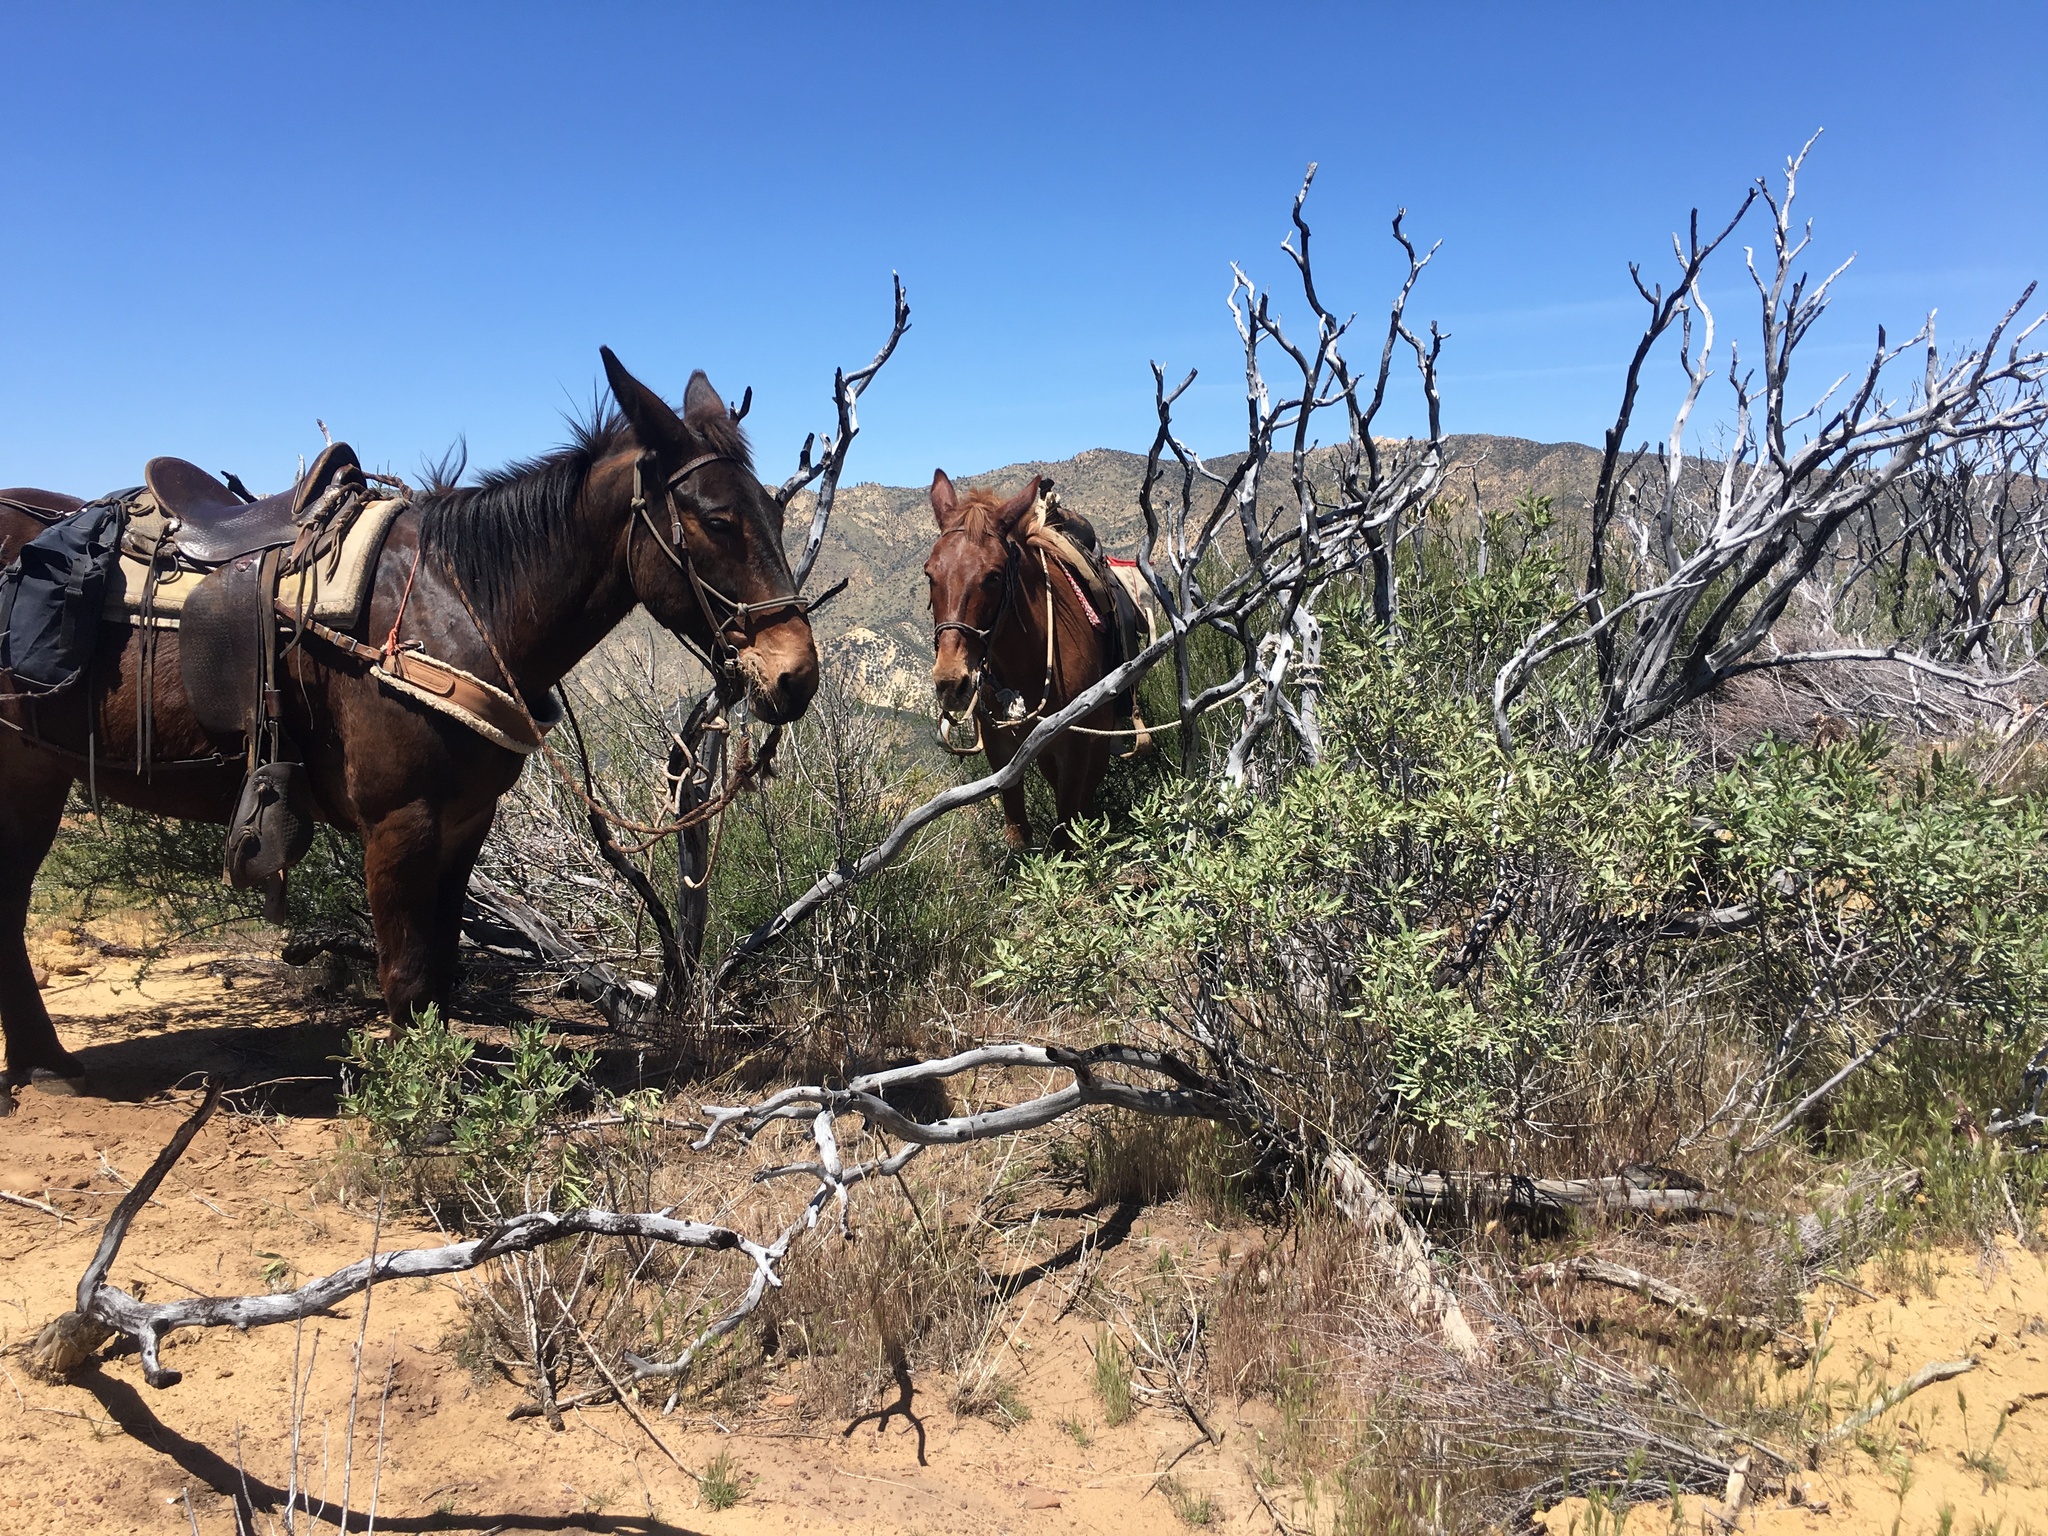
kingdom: Plantae
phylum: Tracheophyta
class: Magnoliopsida
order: Boraginales
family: Namaceae
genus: Eriodictyon
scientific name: Eriodictyon crassifolium
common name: Thick-leaf yerba-santa
